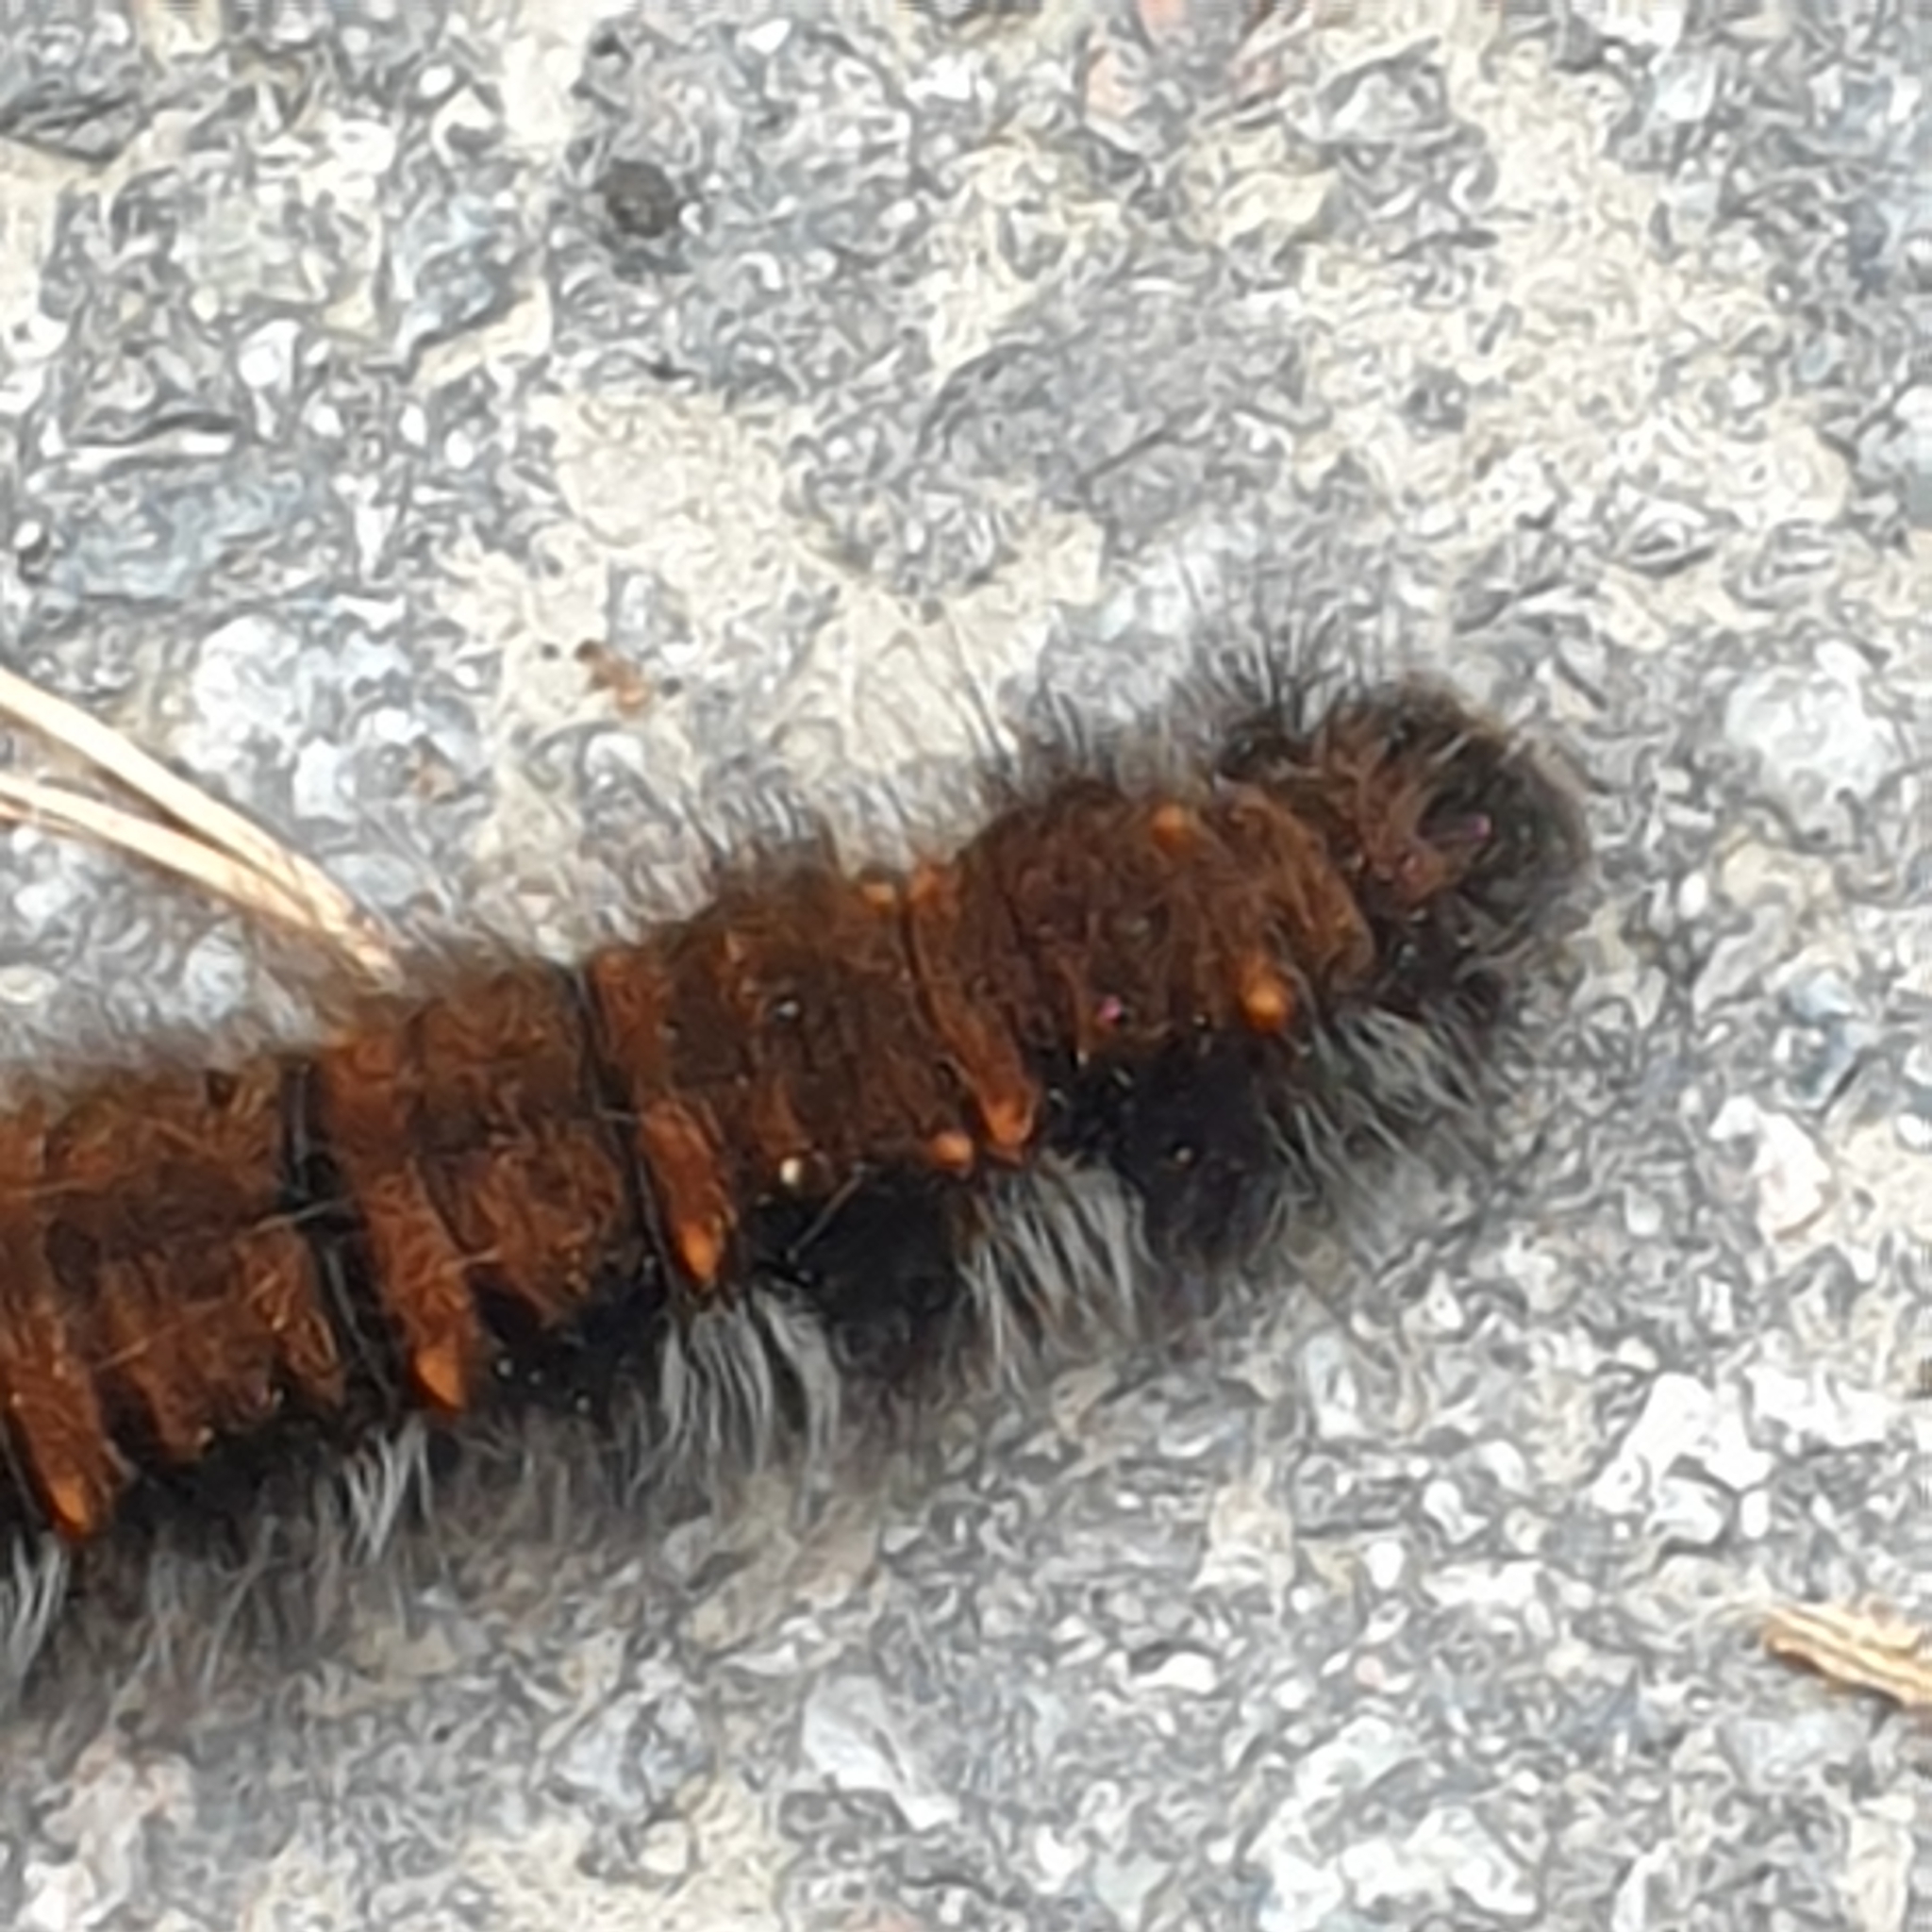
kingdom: Animalia
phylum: Arthropoda
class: Insecta
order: Lepidoptera
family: Lasiocampidae
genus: Macrothylacia
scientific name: Macrothylacia rubi
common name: Fox moth
